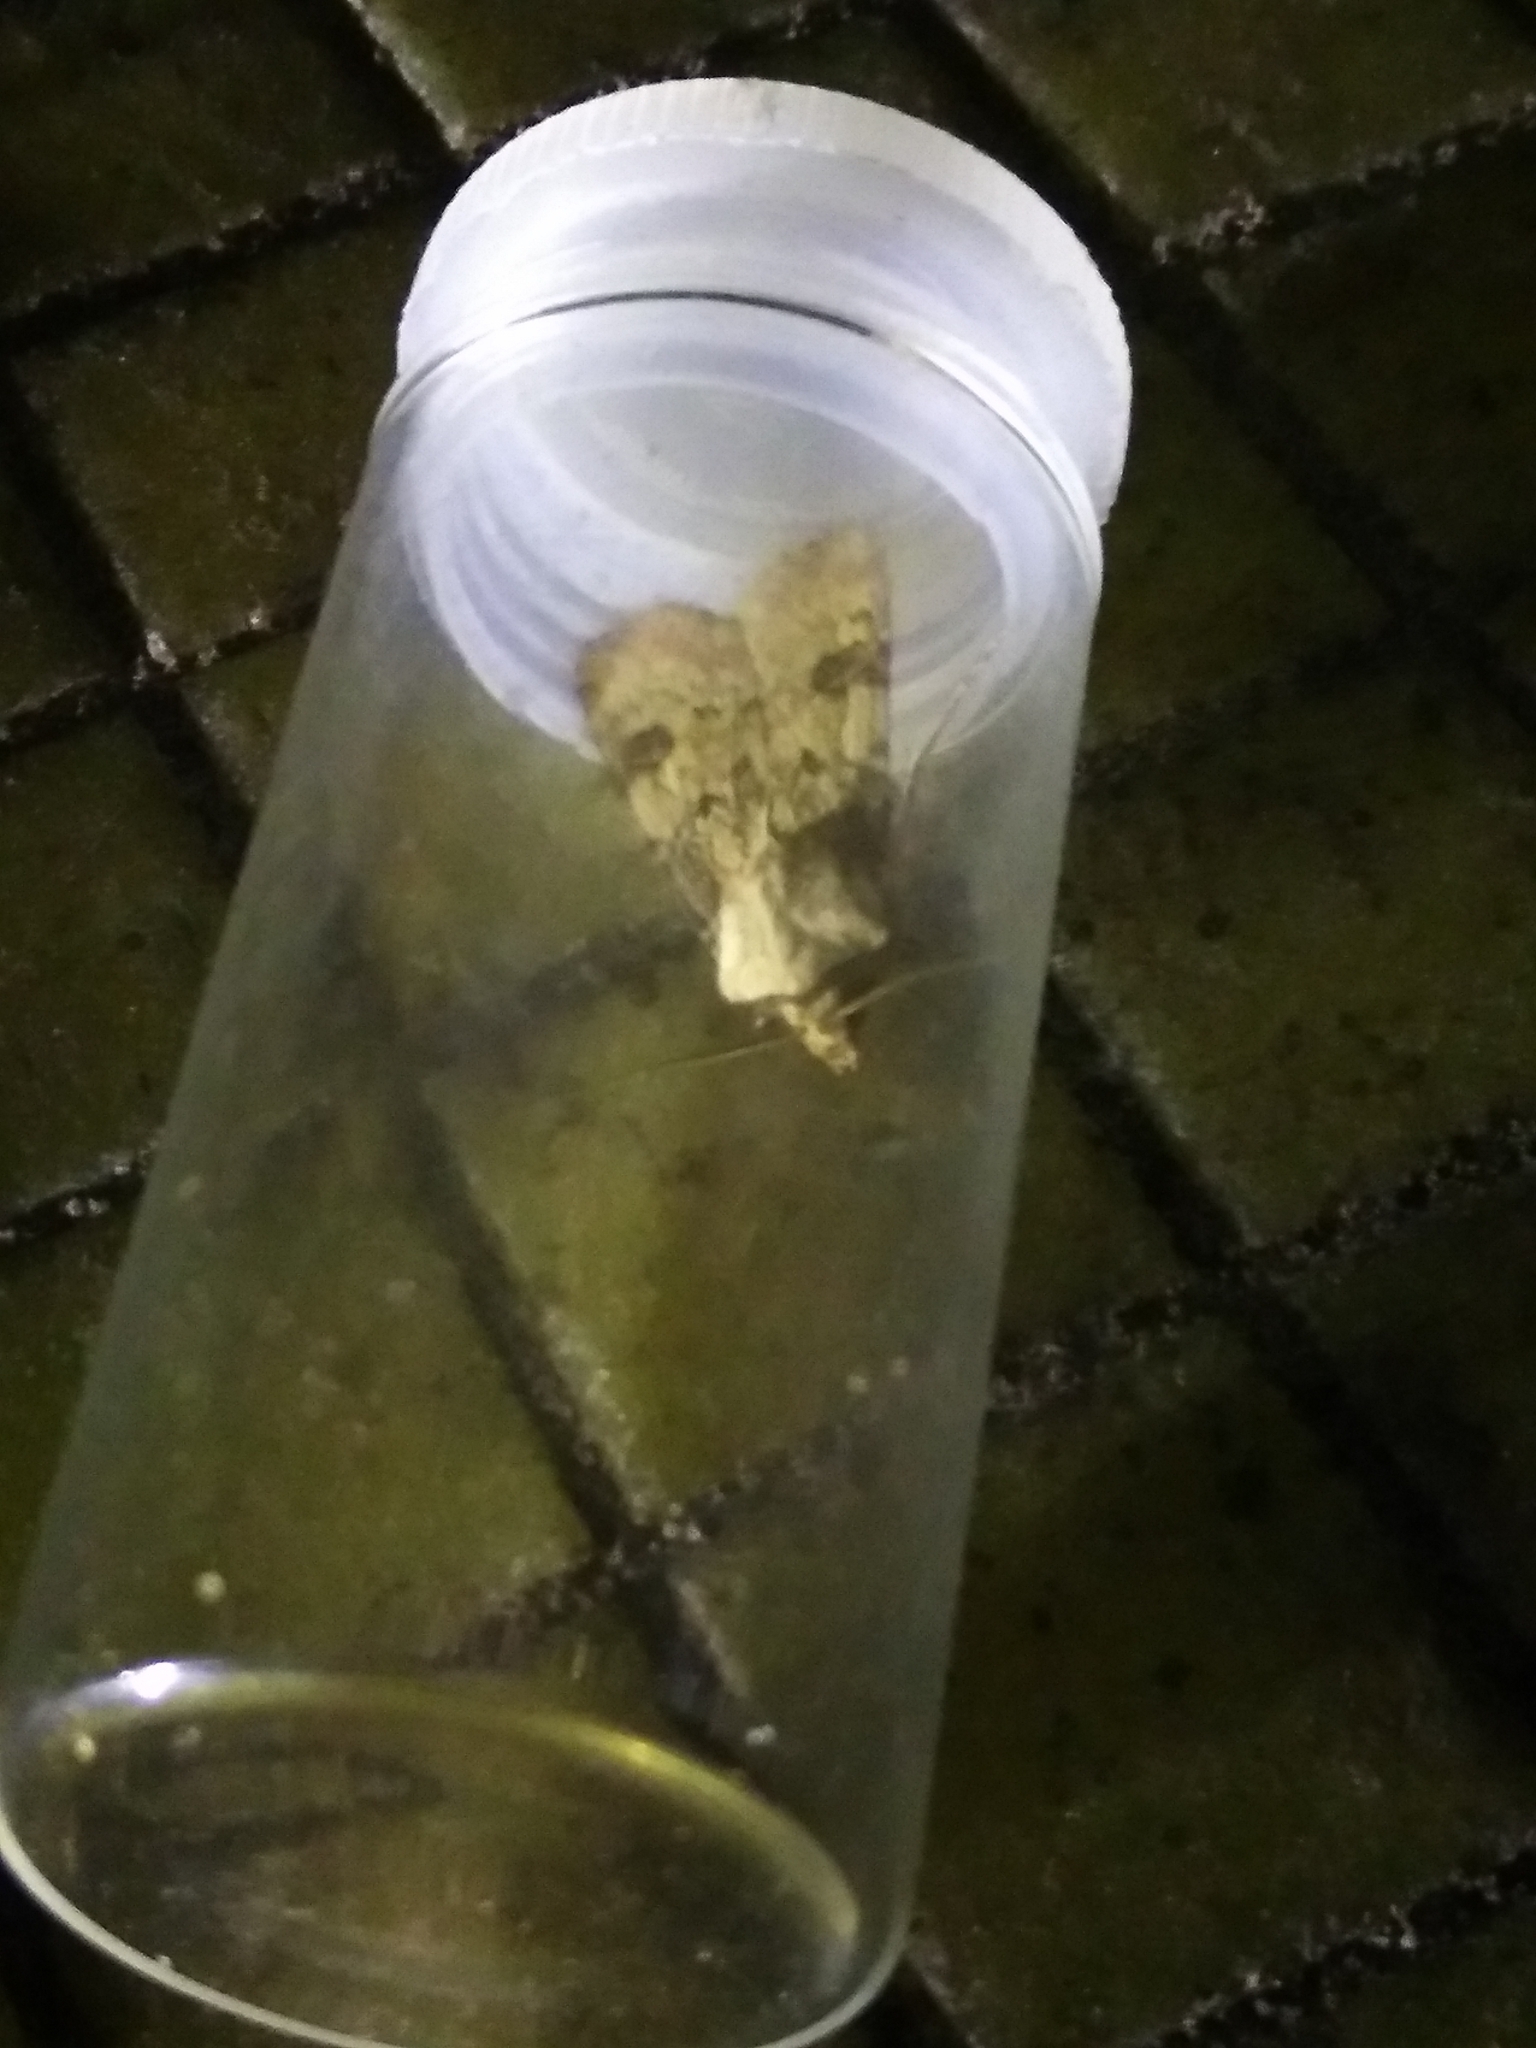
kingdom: Animalia
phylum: Arthropoda
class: Insecta
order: Lepidoptera
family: Noctuidae
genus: Agrotis
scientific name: Agrotis puta
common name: Shuttle-shaped dart
